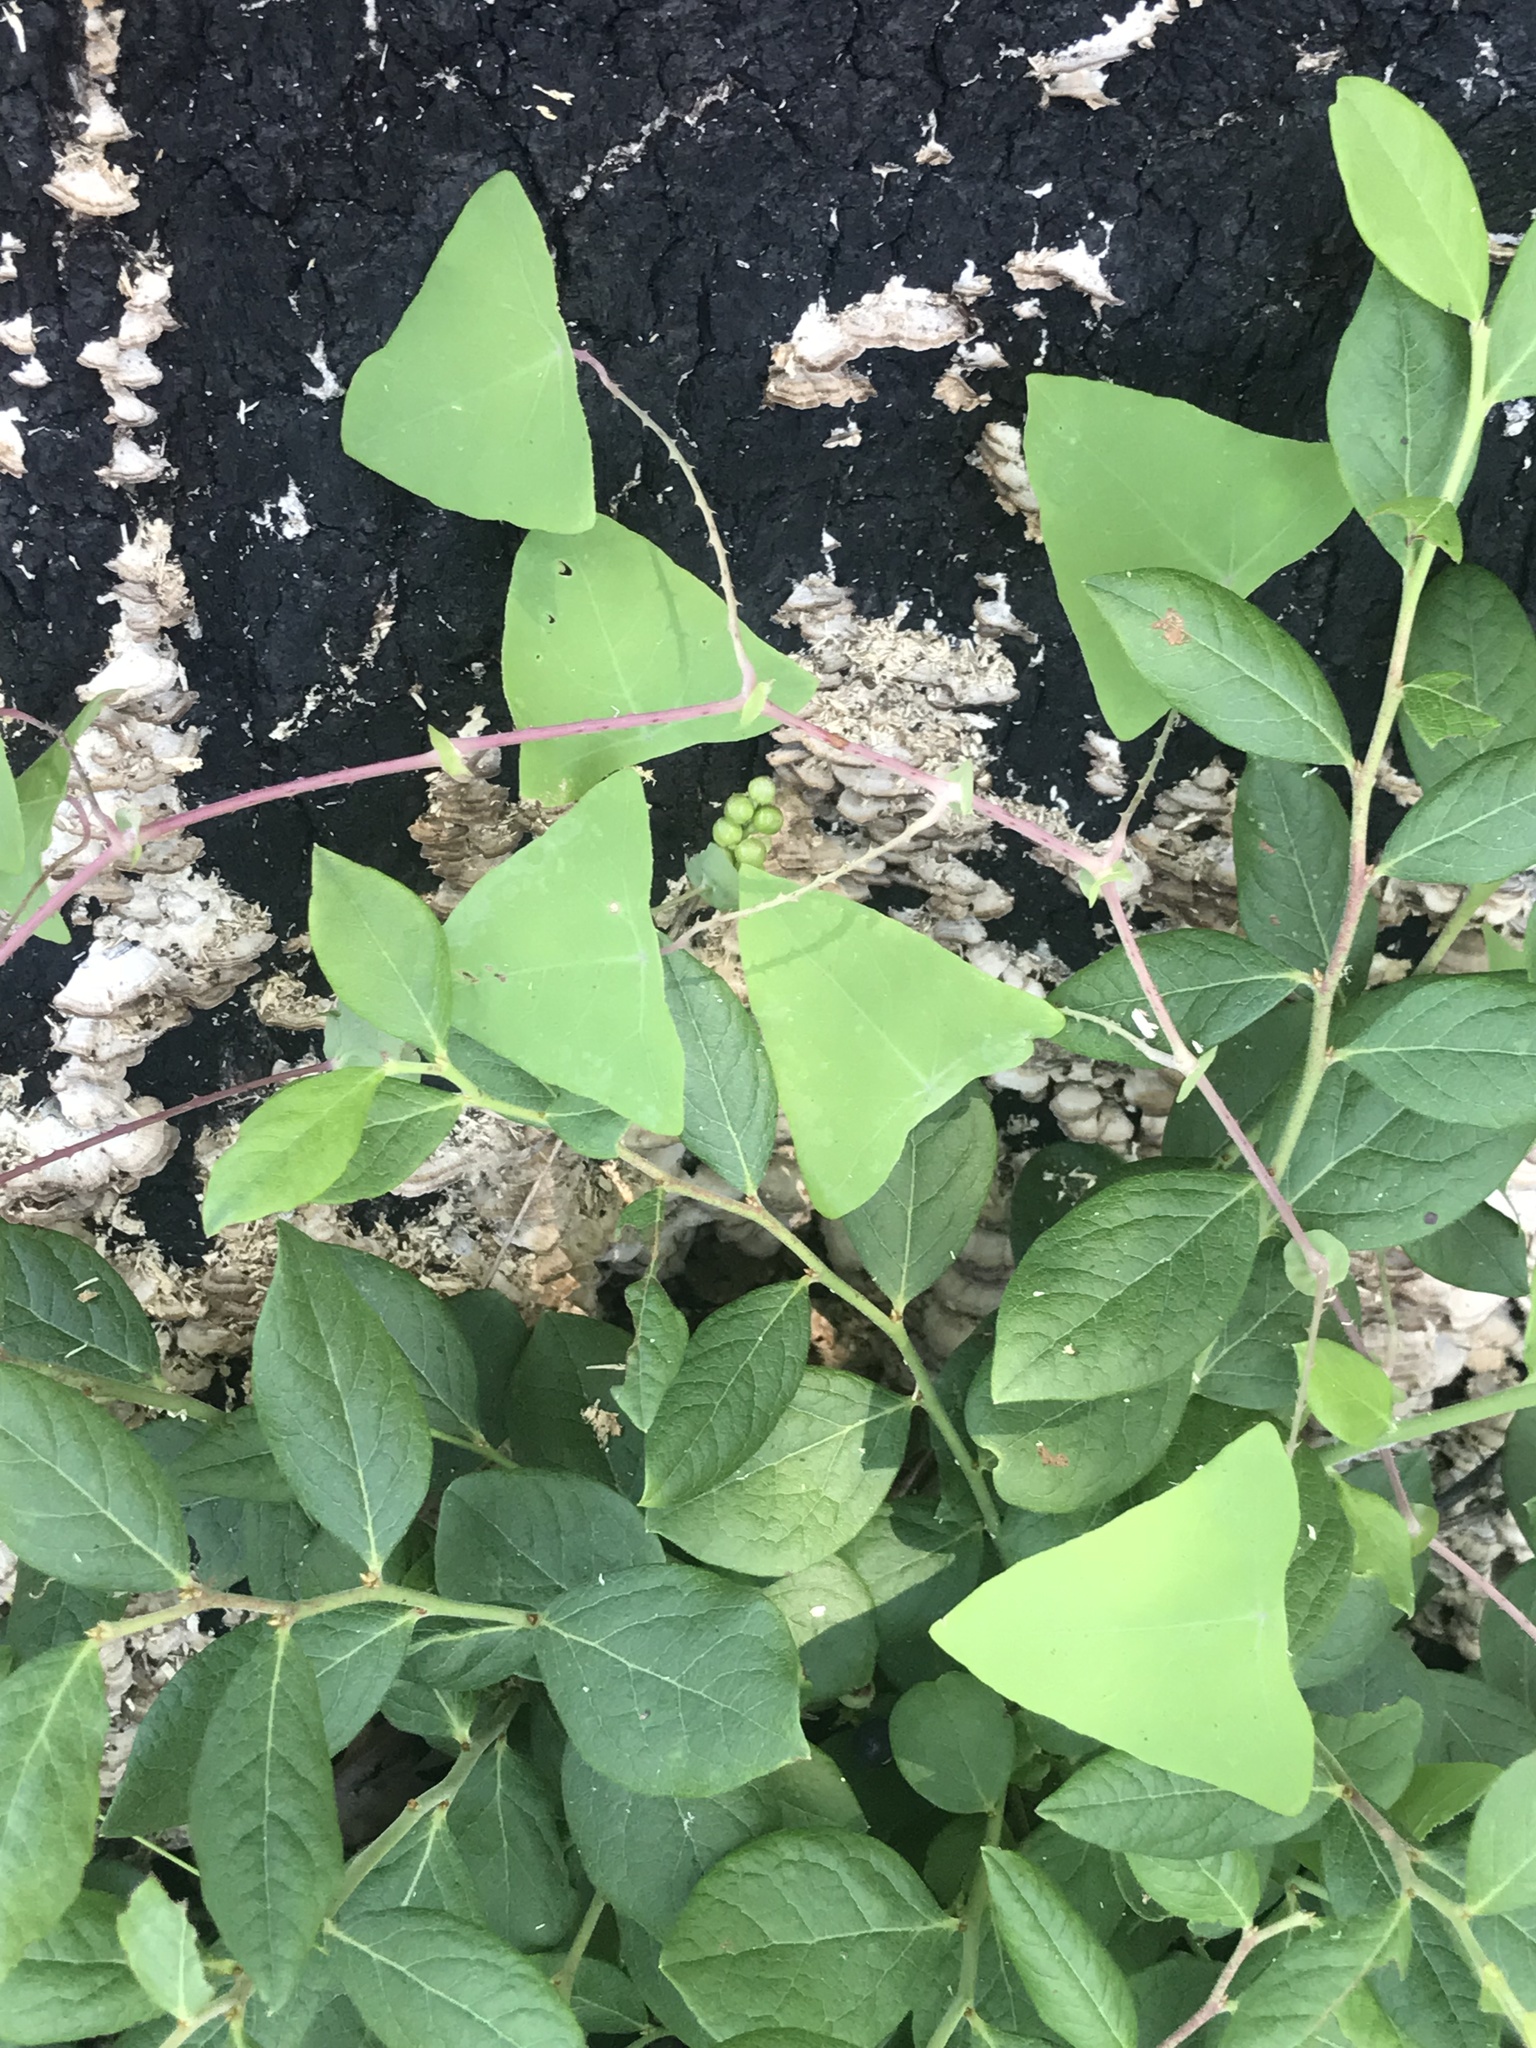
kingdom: Plantae
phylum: Tracheophyta
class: Magnoliopsida
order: Caryophyllales
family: Polygonaceae
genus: Persicaria
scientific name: Persicaria perfoliata
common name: Asiatic tearthumb
